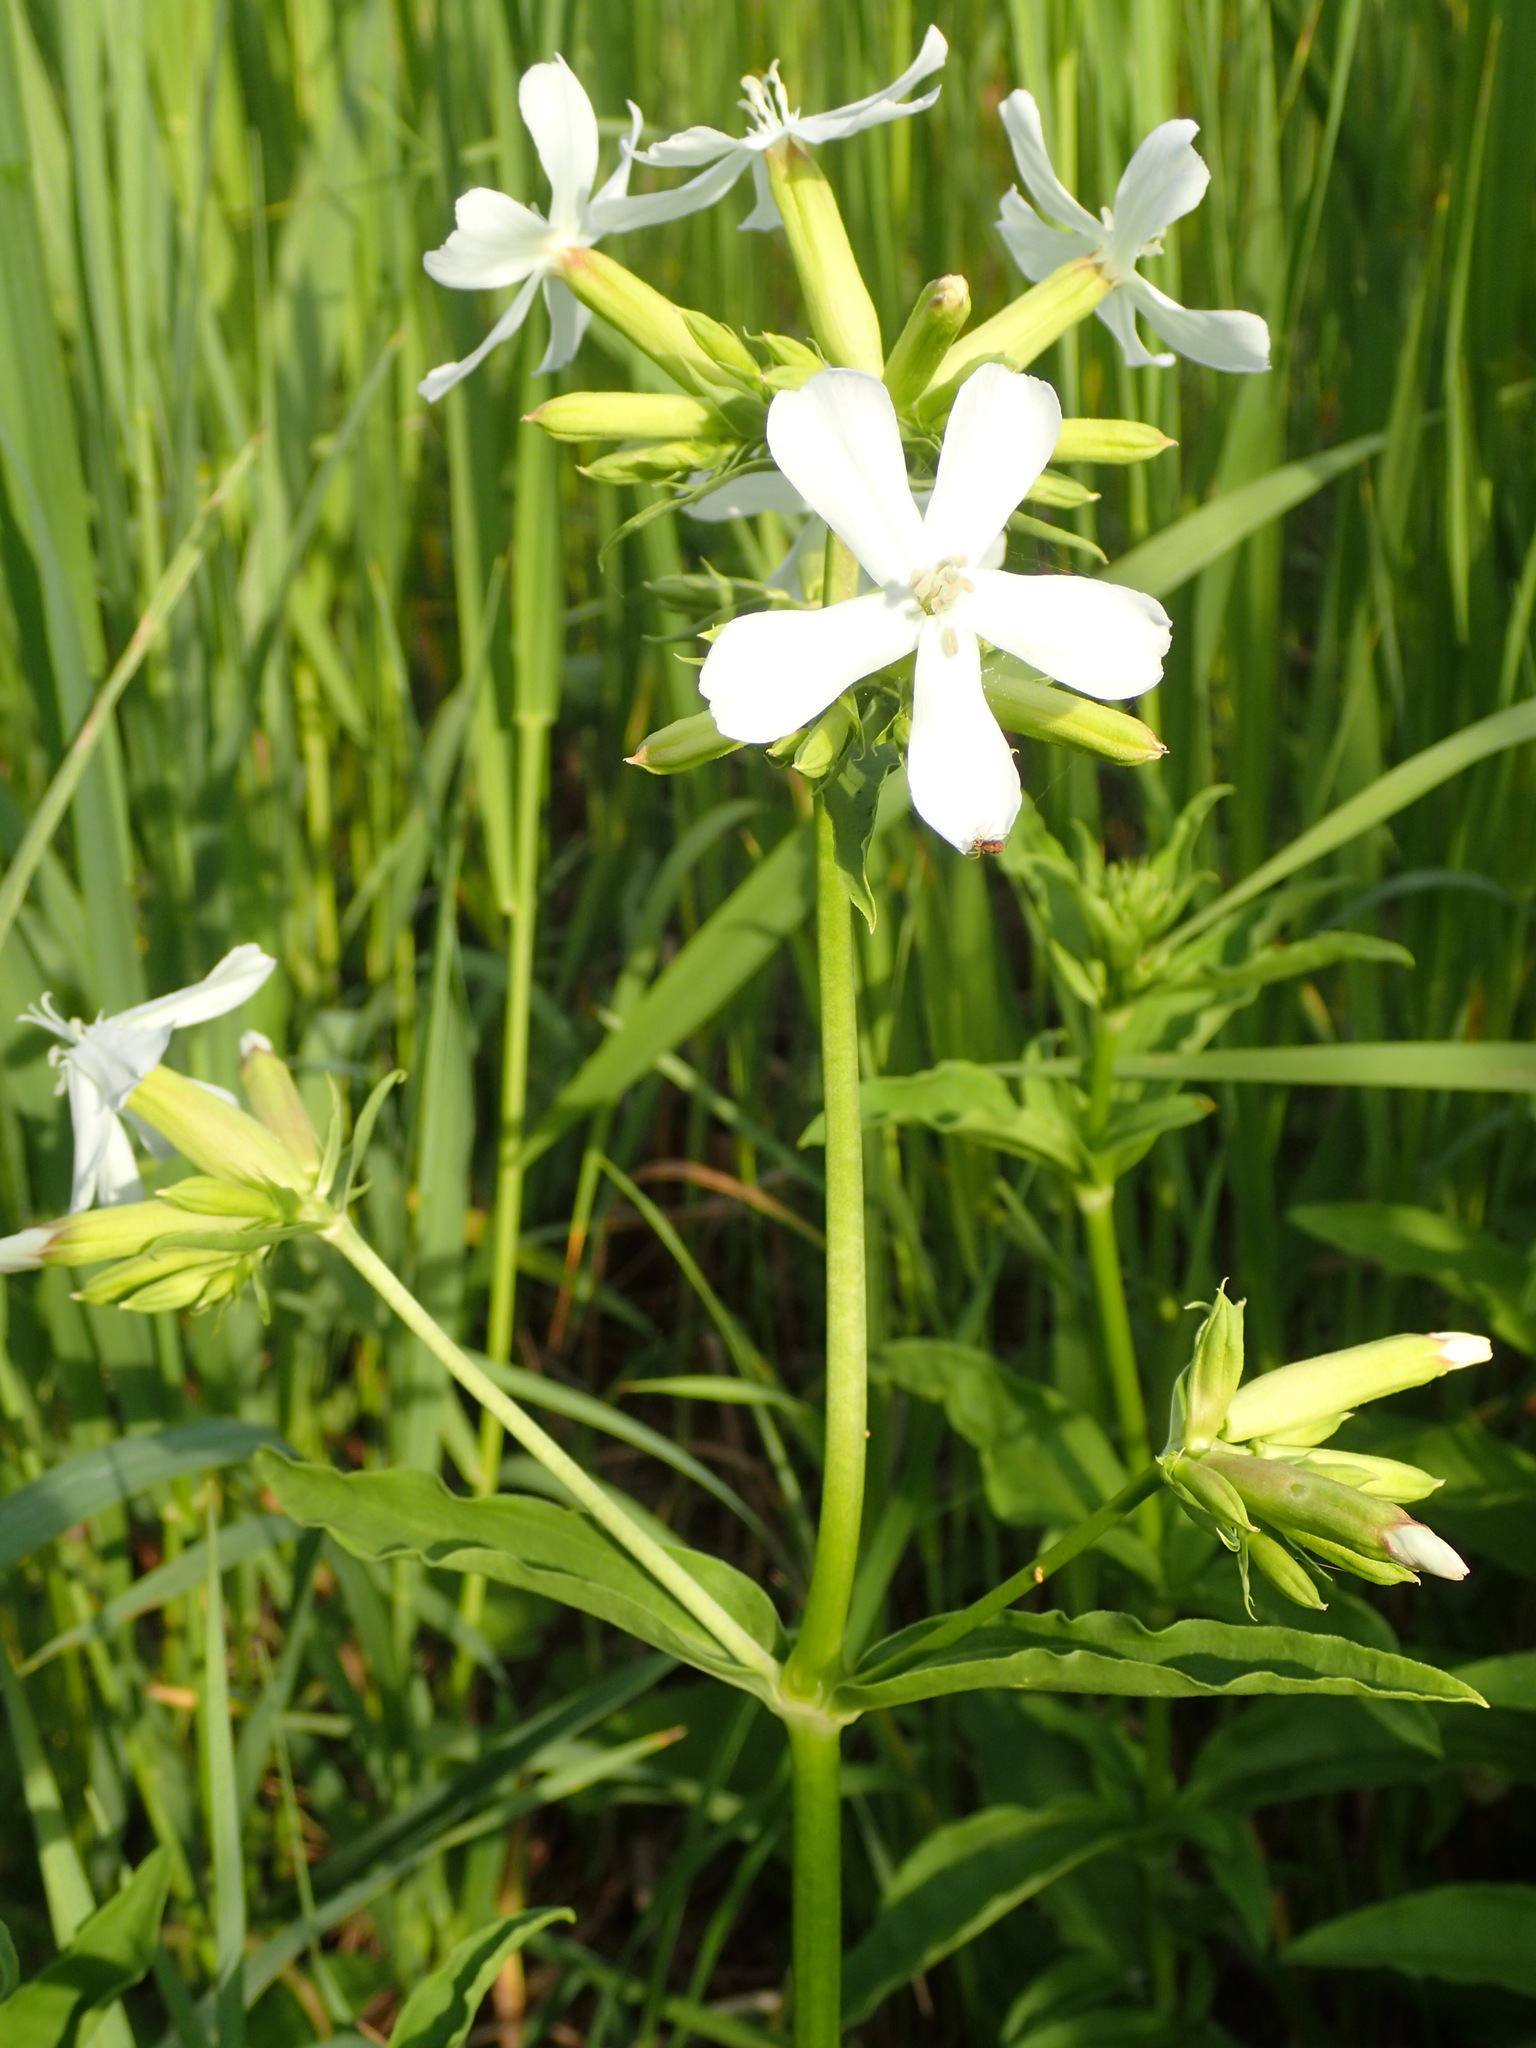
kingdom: Plantae
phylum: Tracheophyta
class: Magnoliopsida
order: Caryophyllales
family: Caryophyllaceae
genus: Saponaria
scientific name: Saponaria officinalis
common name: Soapwort
